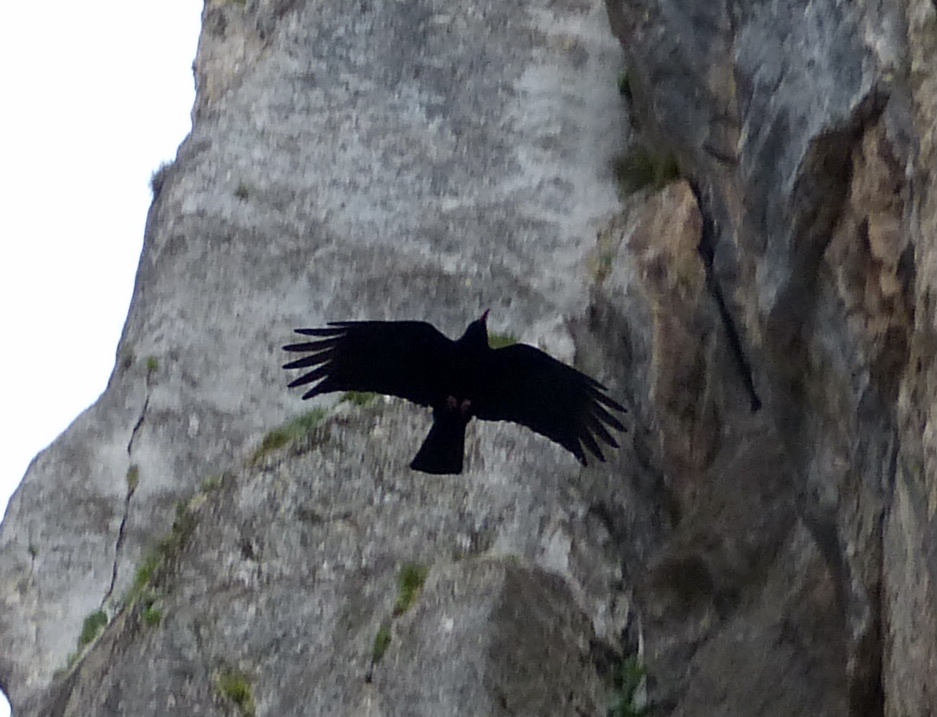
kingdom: Animalia
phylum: Chordata
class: Aves
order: Passeriformes
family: Corvidae
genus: Pyrrhocorax
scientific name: Pyrrhocorax pyrrhocorax
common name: Red-billed chough
